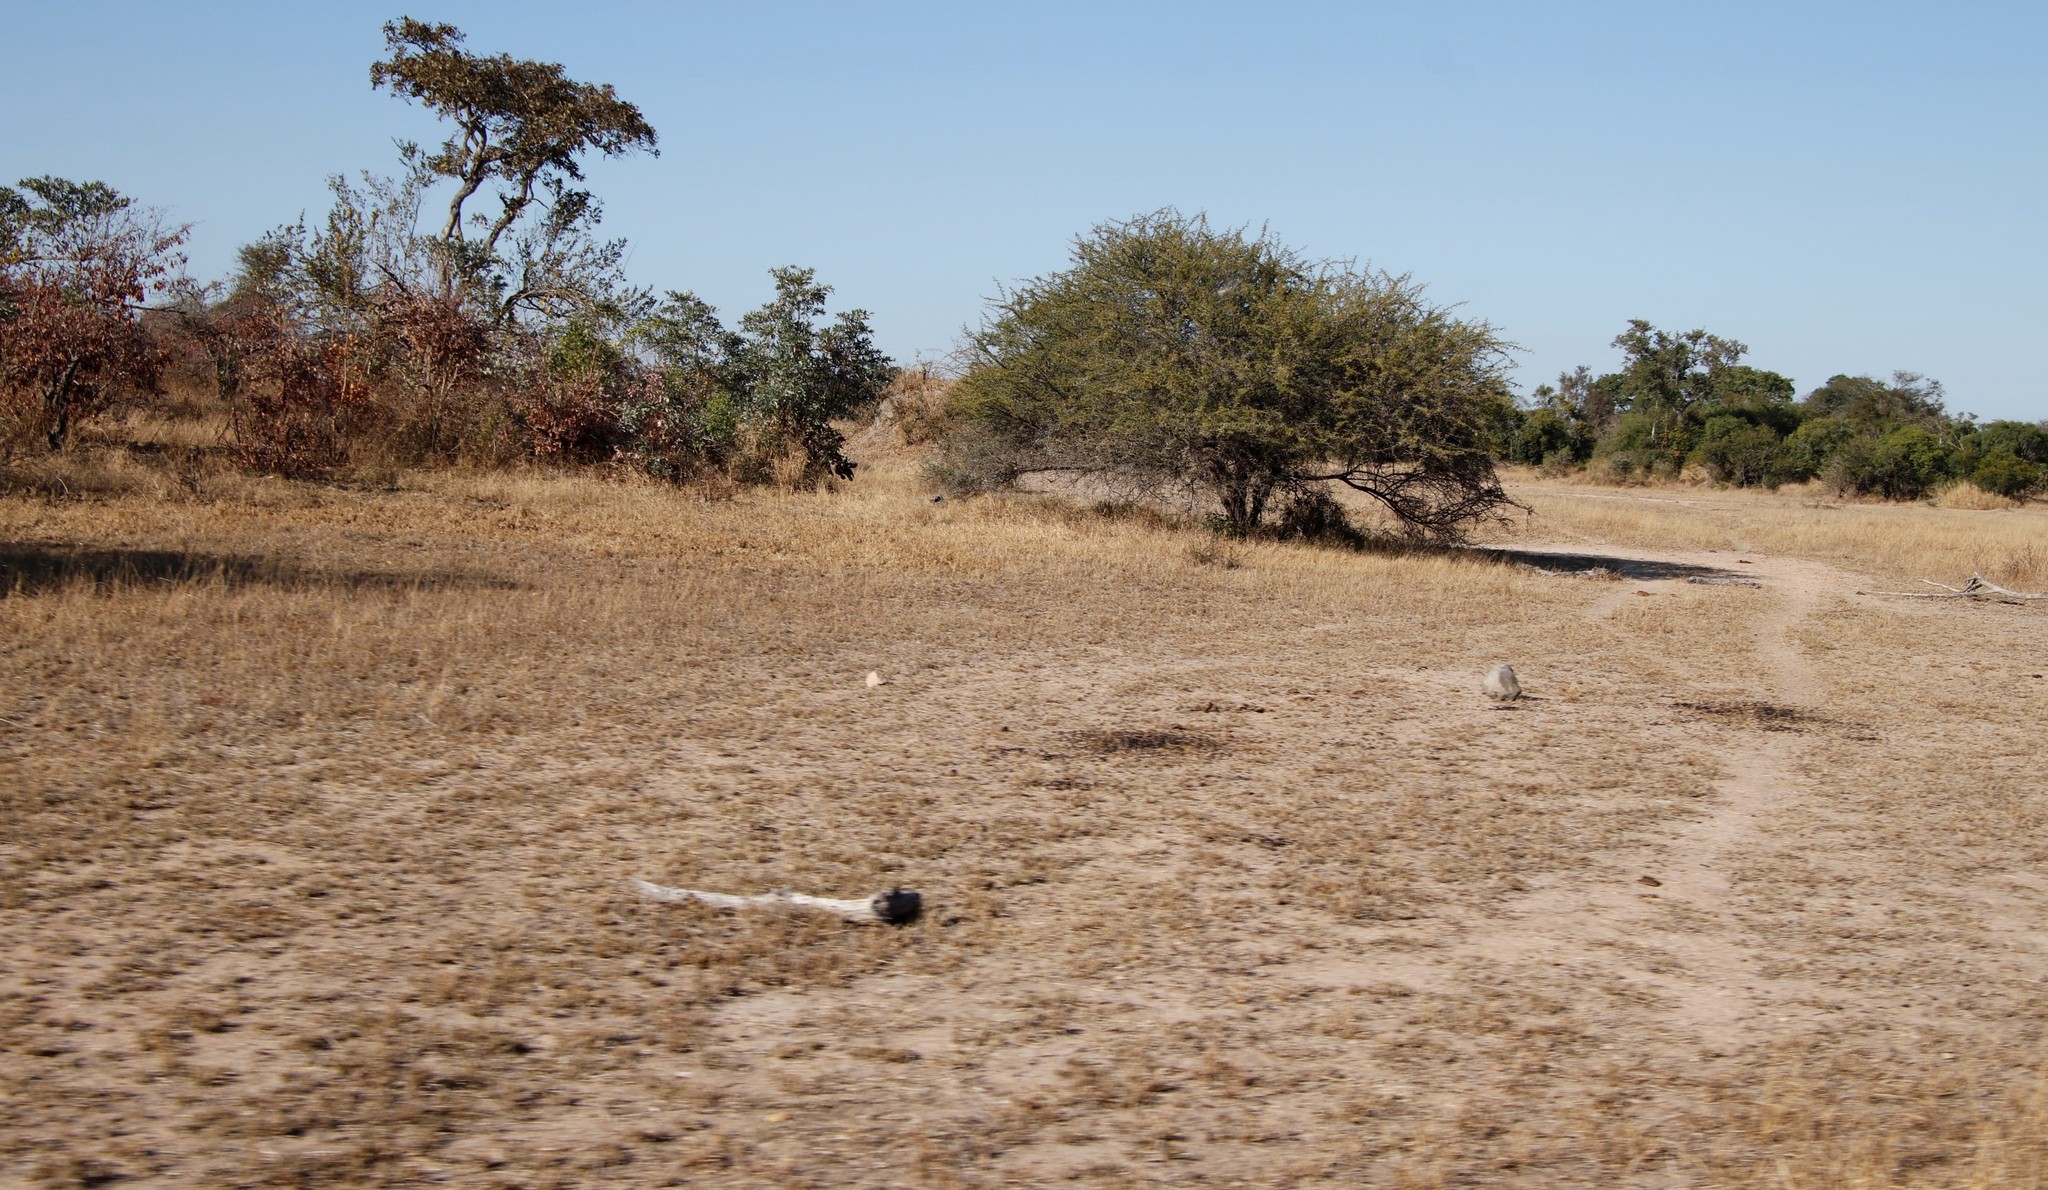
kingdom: Plantae
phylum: Tracheophyta
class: Magnoliopsida
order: Fabales
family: Fabaceae
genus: Vachellia
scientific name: Vachellia tortilis
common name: Umbrella thorn acacia
